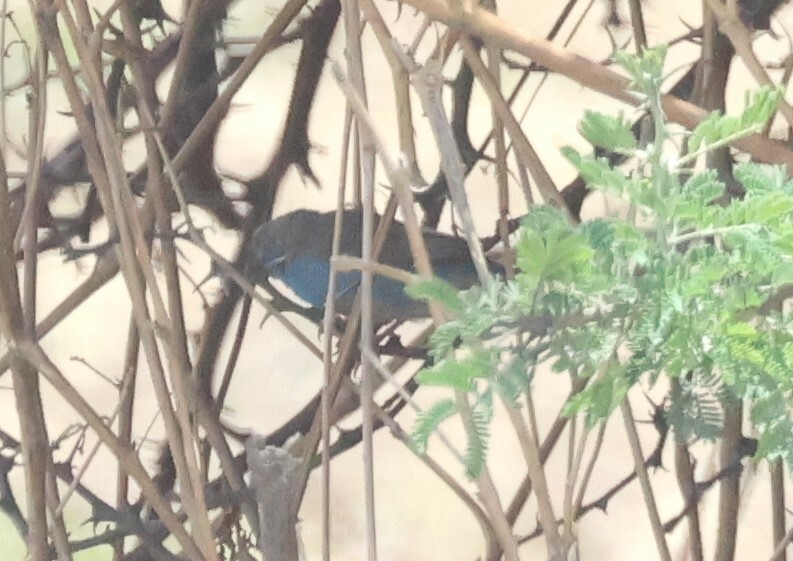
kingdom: Animalia
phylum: Chordata
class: Aves
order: Passeriformes
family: Estrildidae
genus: Uraeginthus
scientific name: Uraeginthus angolensis
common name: Blue waxbill
